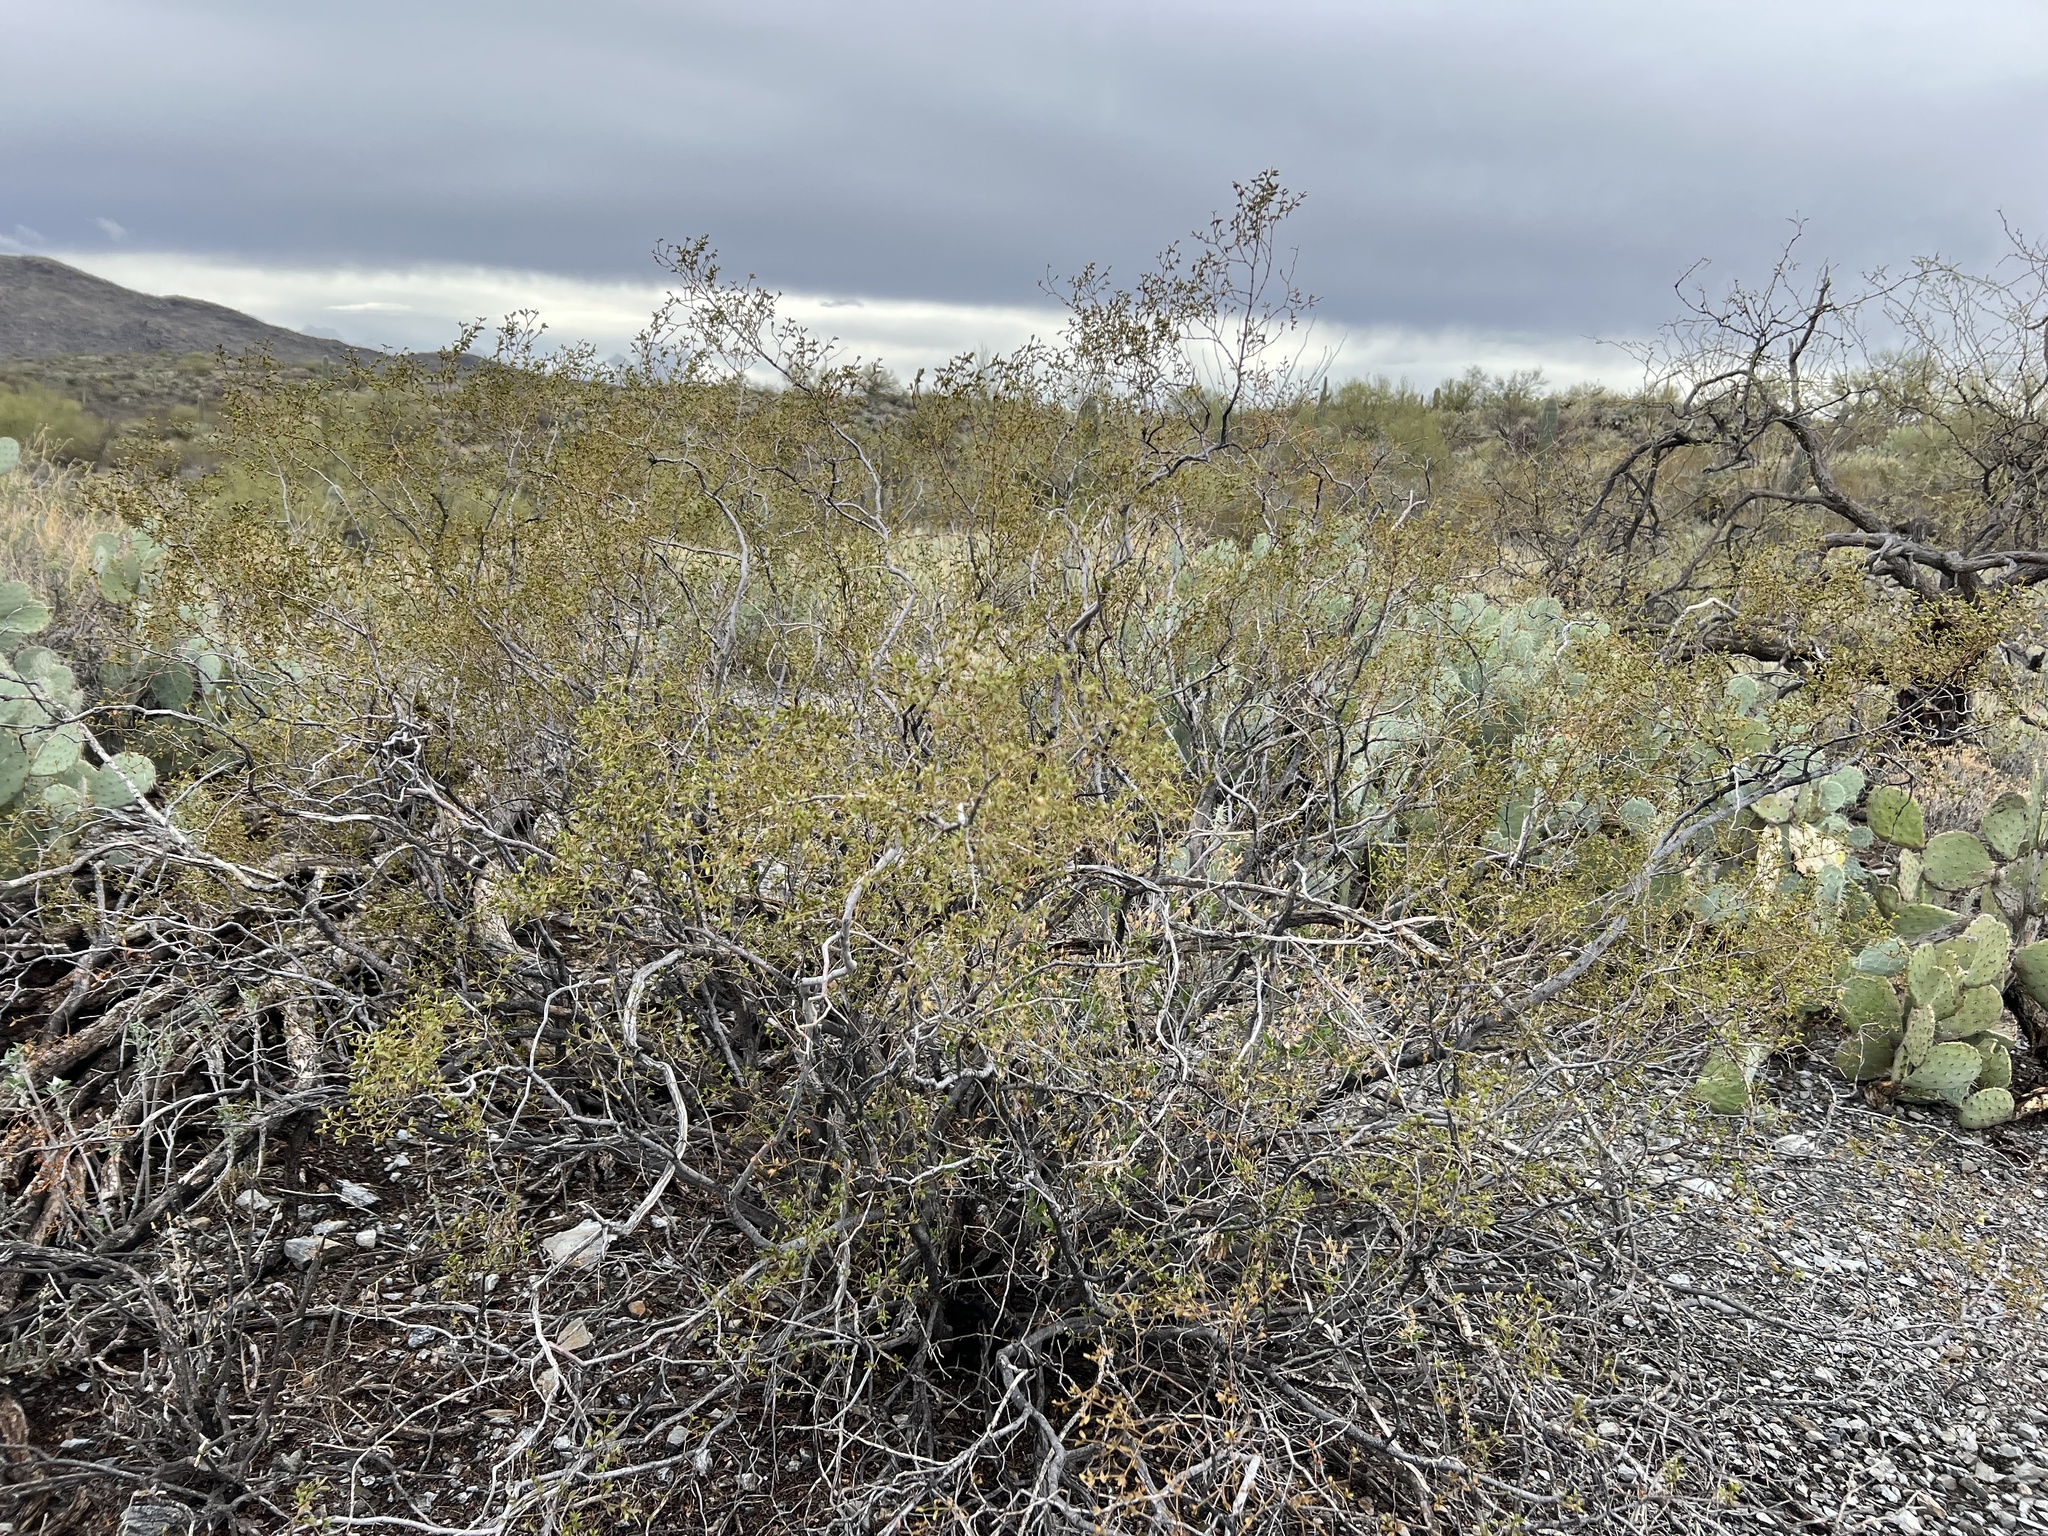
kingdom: Plantae
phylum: Tracheophyta
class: Magnoliopsida
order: Zygophyllales
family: Zygophyllaceae
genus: Larrea
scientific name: Larrea tridentata
